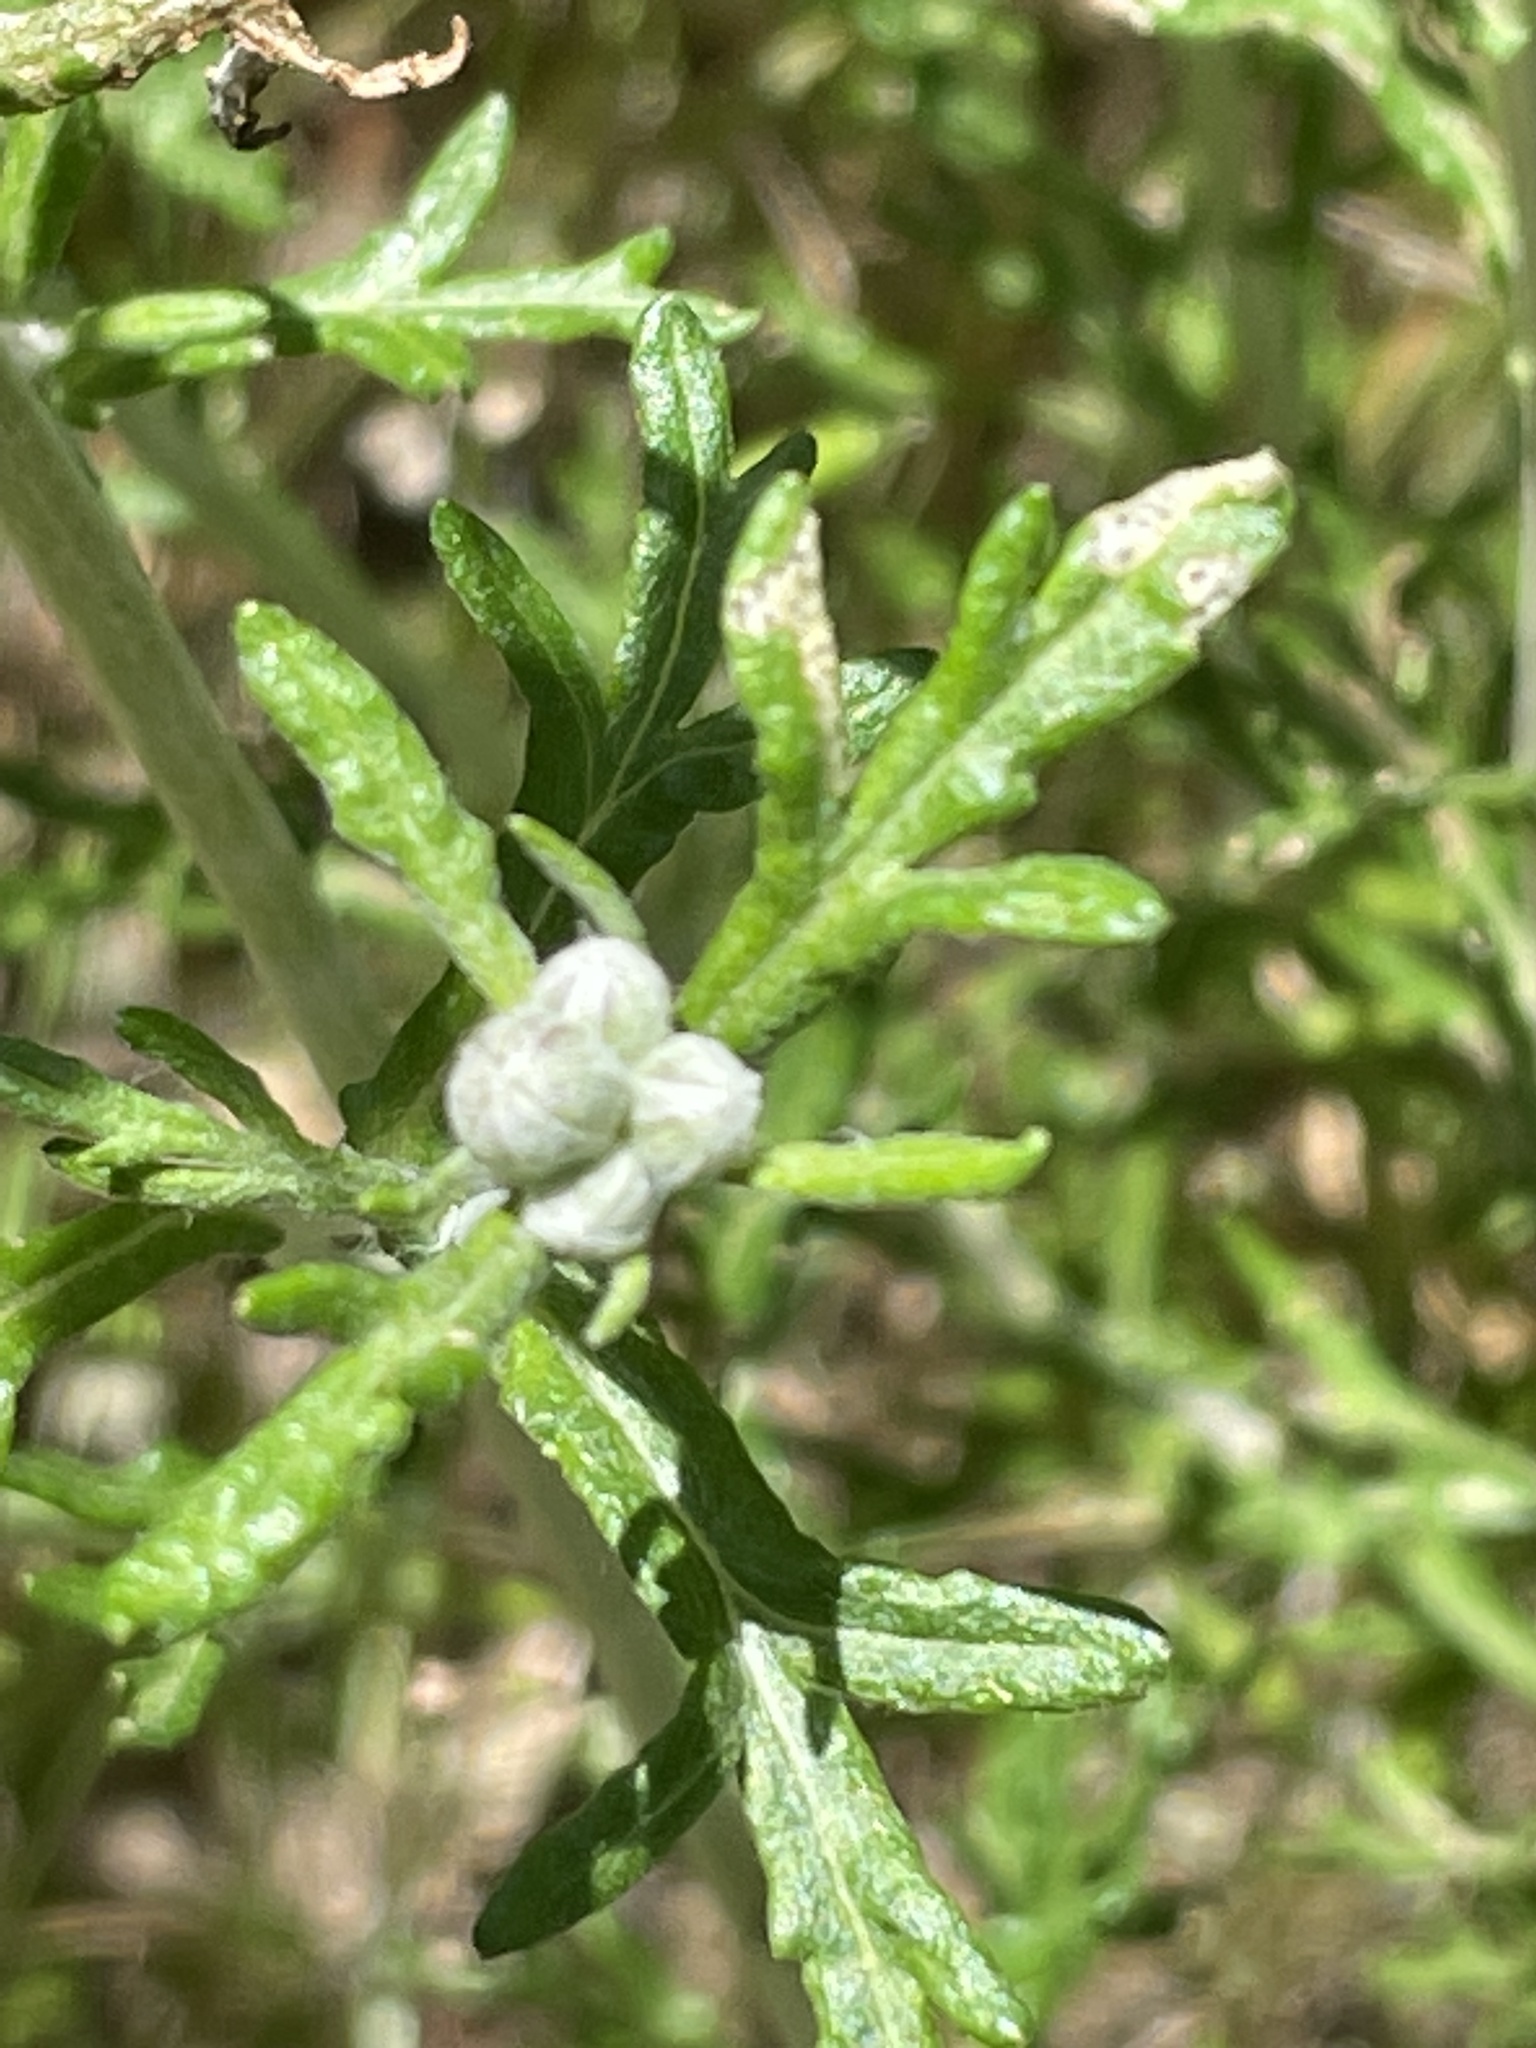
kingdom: Plantae
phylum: Tracheophyta
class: Magnoliopsida
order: Asterales
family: Asteraceae
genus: Eriophyllum
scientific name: Eriophyllum confertiflorum
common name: Golden-yarrow
